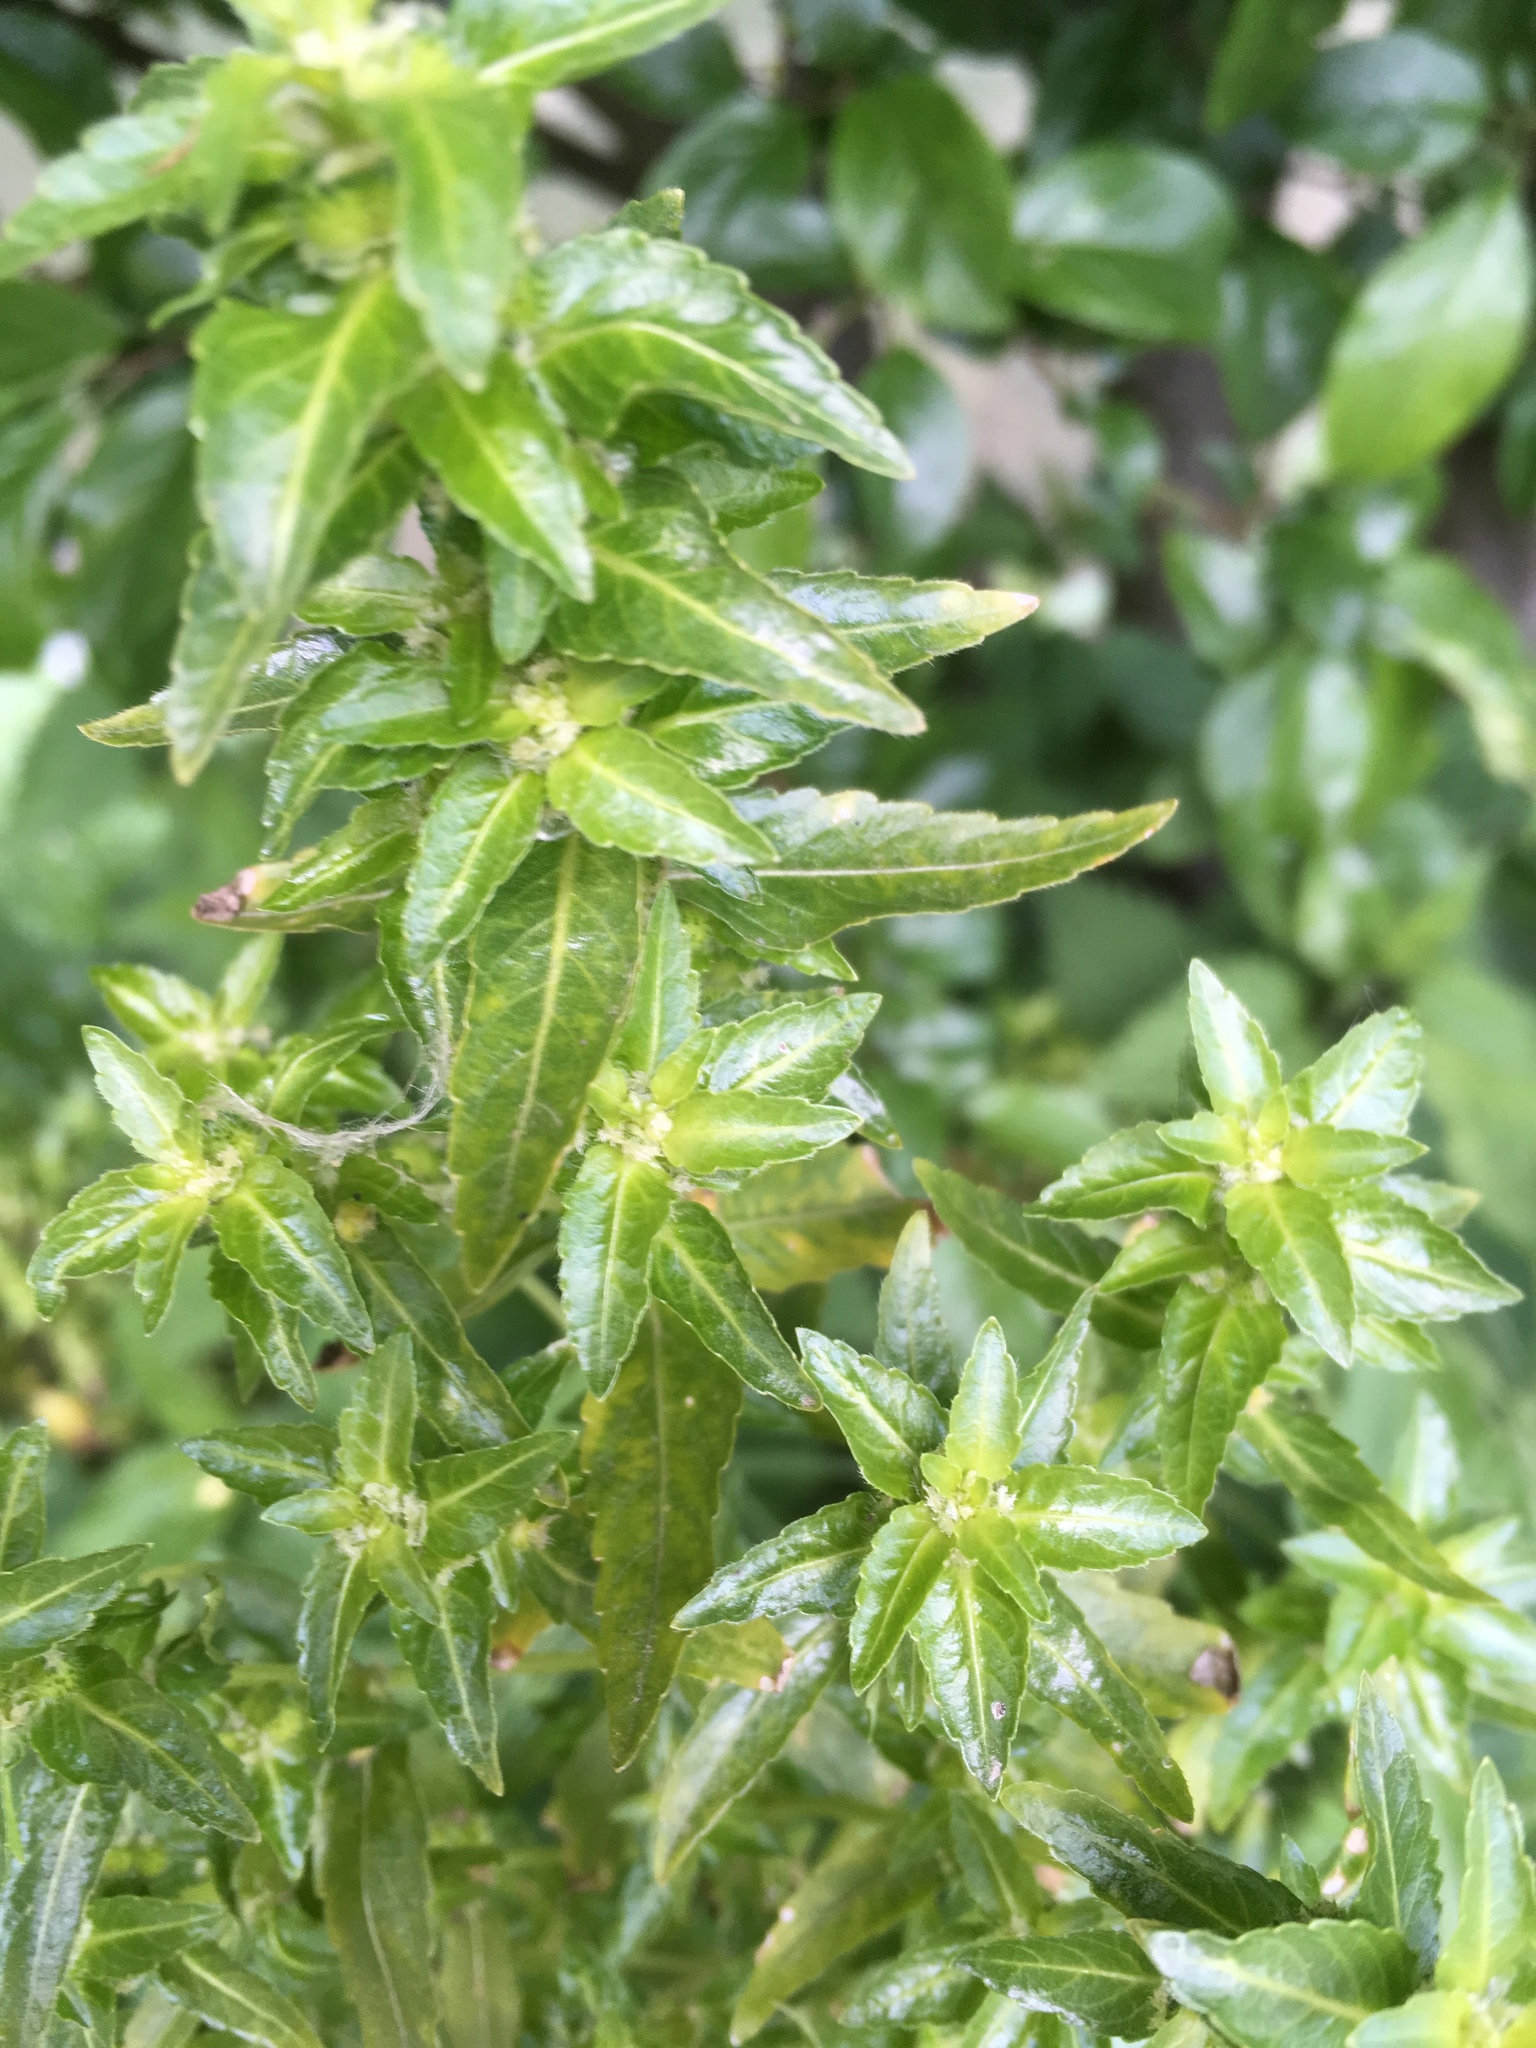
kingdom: Plantae
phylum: Tracheophyta
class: Magnoliopsida
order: Malpighiales
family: Euphorbiaceae
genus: Mercurialis
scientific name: Mercurialis annua
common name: Annual mercury
